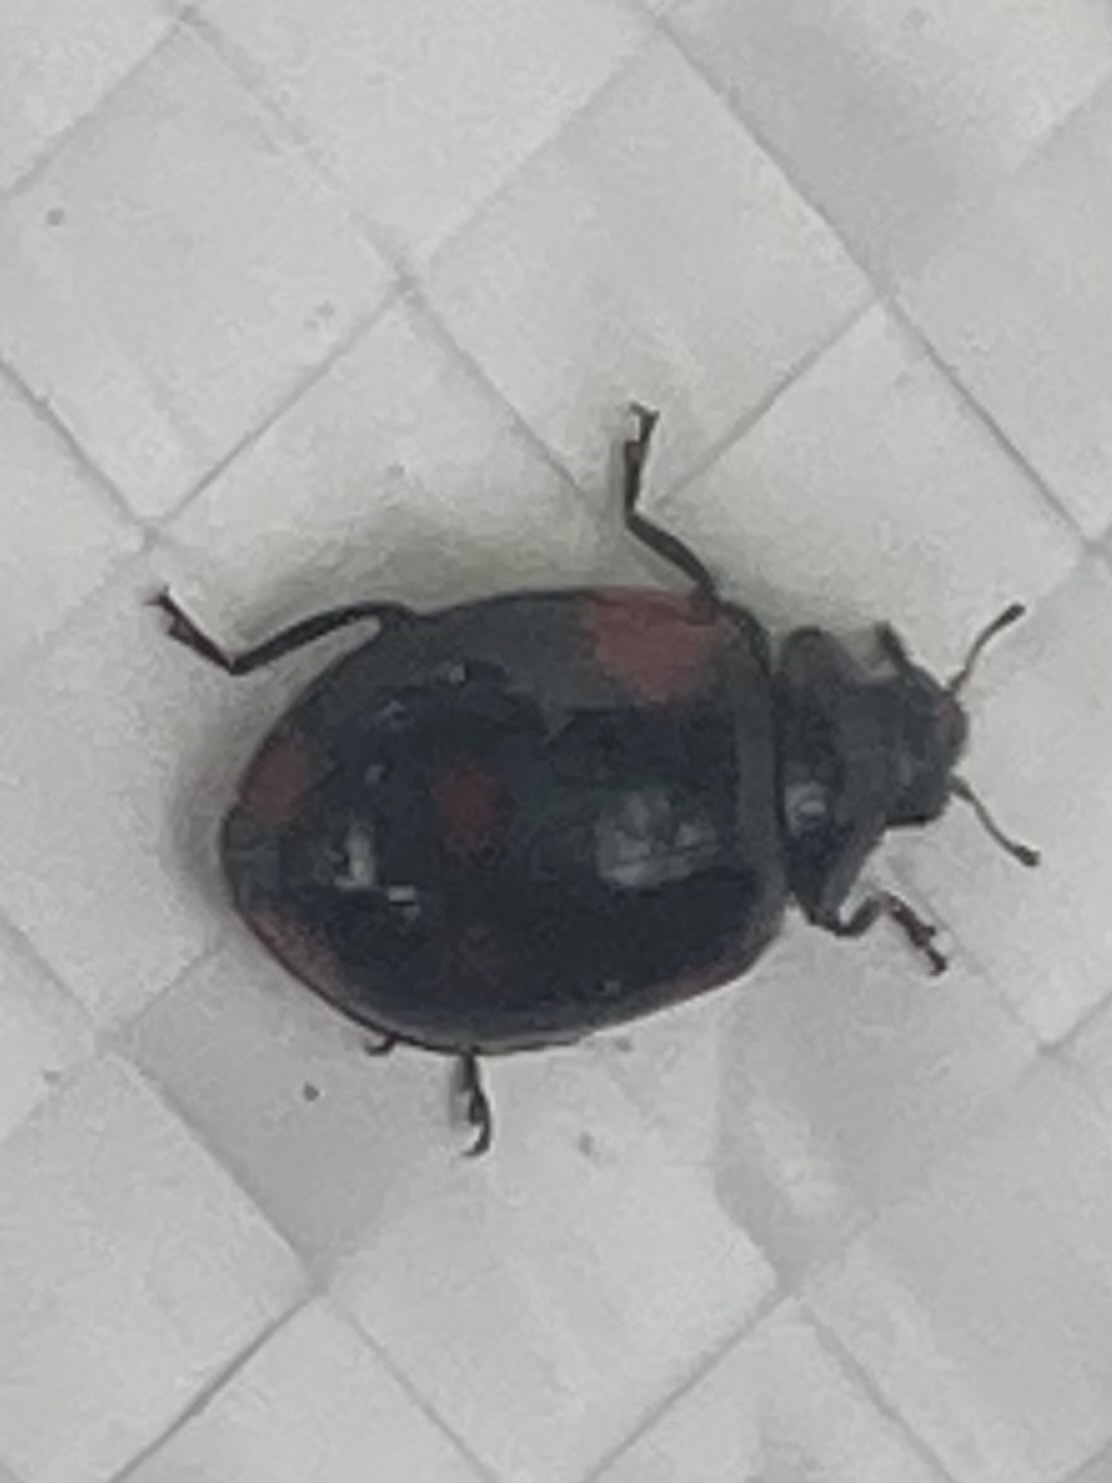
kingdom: Animalia
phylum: Arthropoda
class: Insecta
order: Coleoptera
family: Coccinellidae
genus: Adalia
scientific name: Adalia bipunctata
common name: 2-spot ladybird
